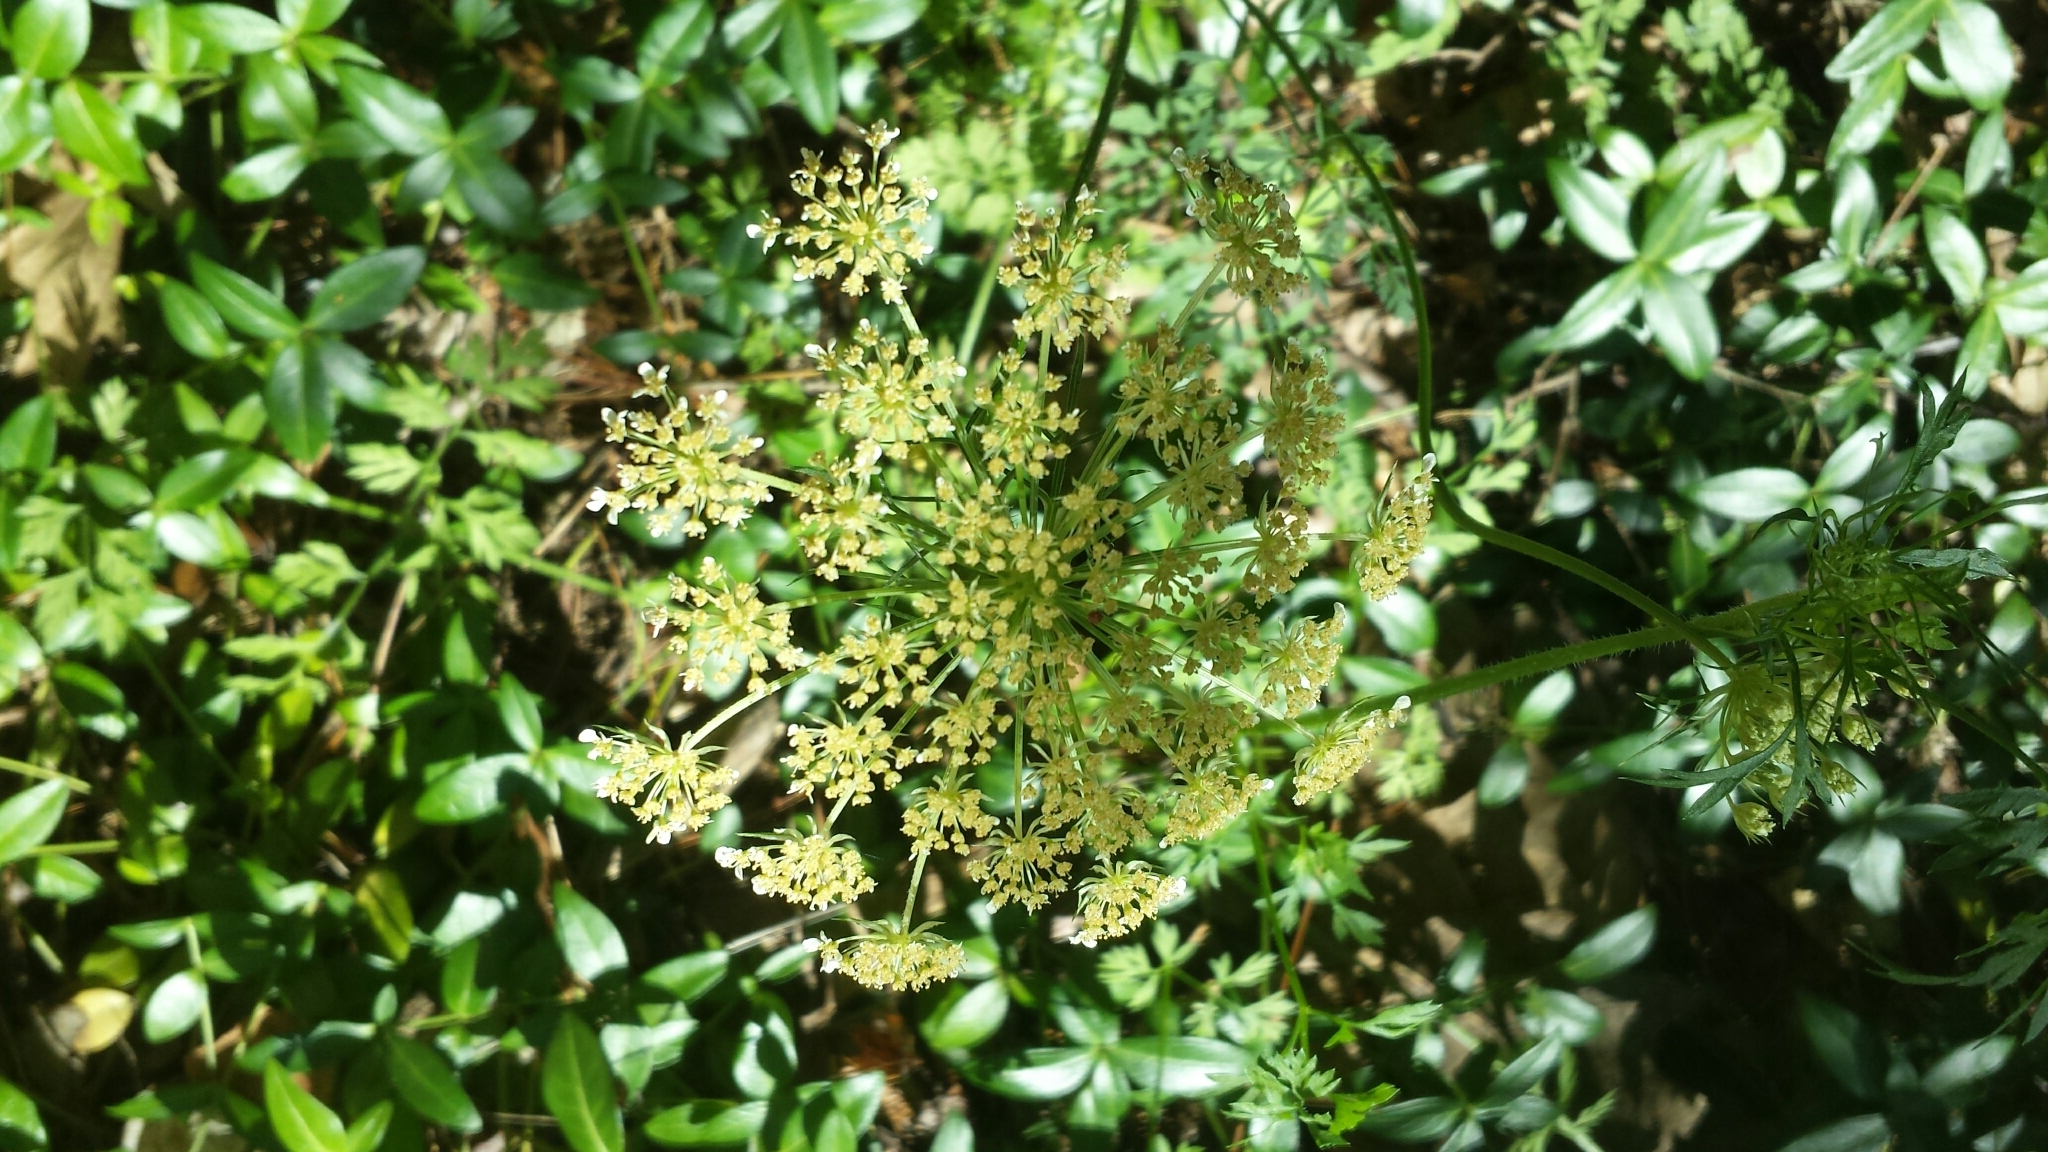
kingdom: Plantae
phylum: Tracheophyta
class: Magnoliopsida
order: Apiales
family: Apiaceae
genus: Daucus
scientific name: Daucus carota
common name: Wild carrot
